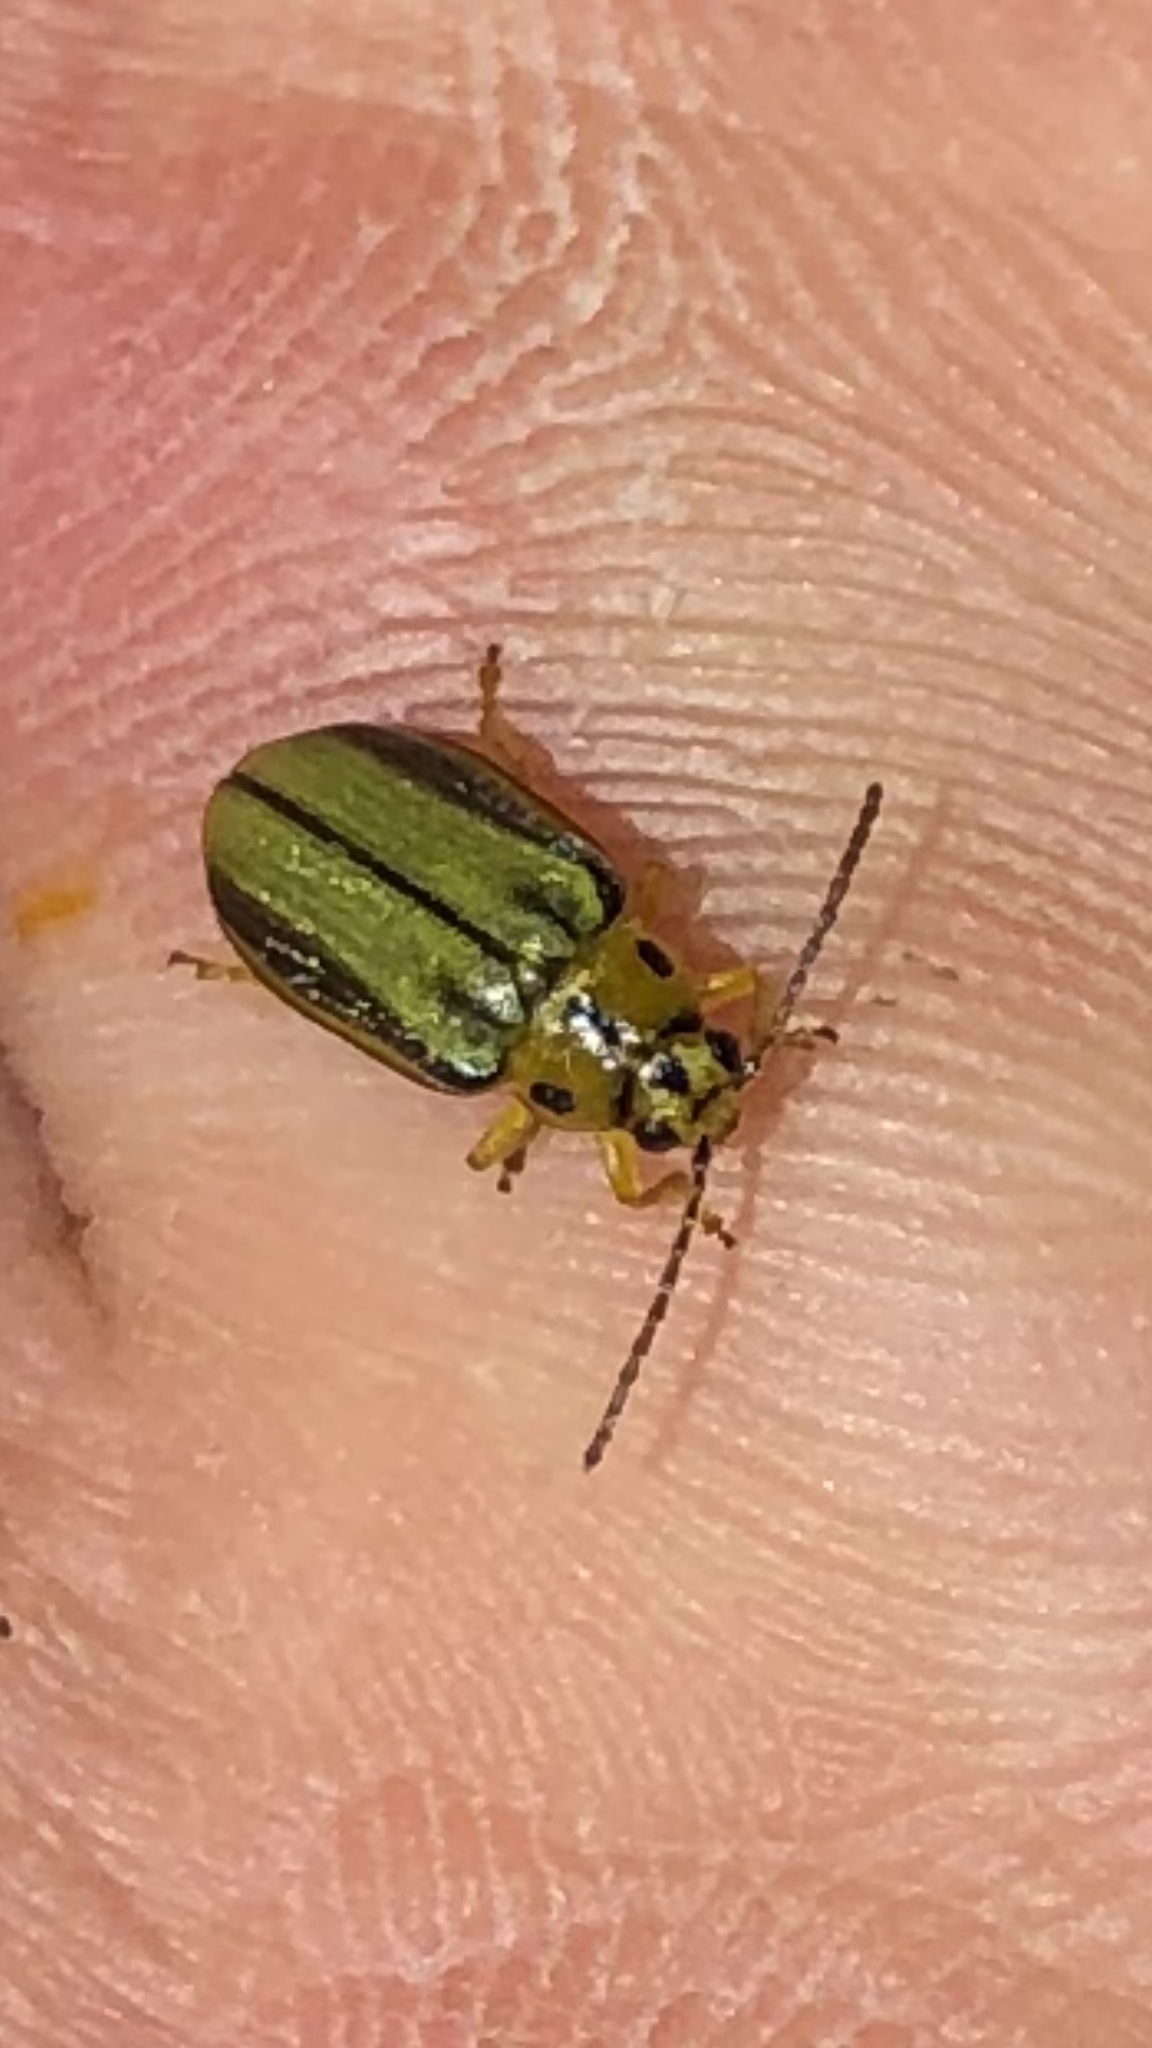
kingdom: Animalia
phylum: Arthropoda
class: Insecta
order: Coleoptera
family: Chrysomelidae
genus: Xanthogaleruca
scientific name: Xanthogaleruca luteola
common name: Elm leaf beetle
